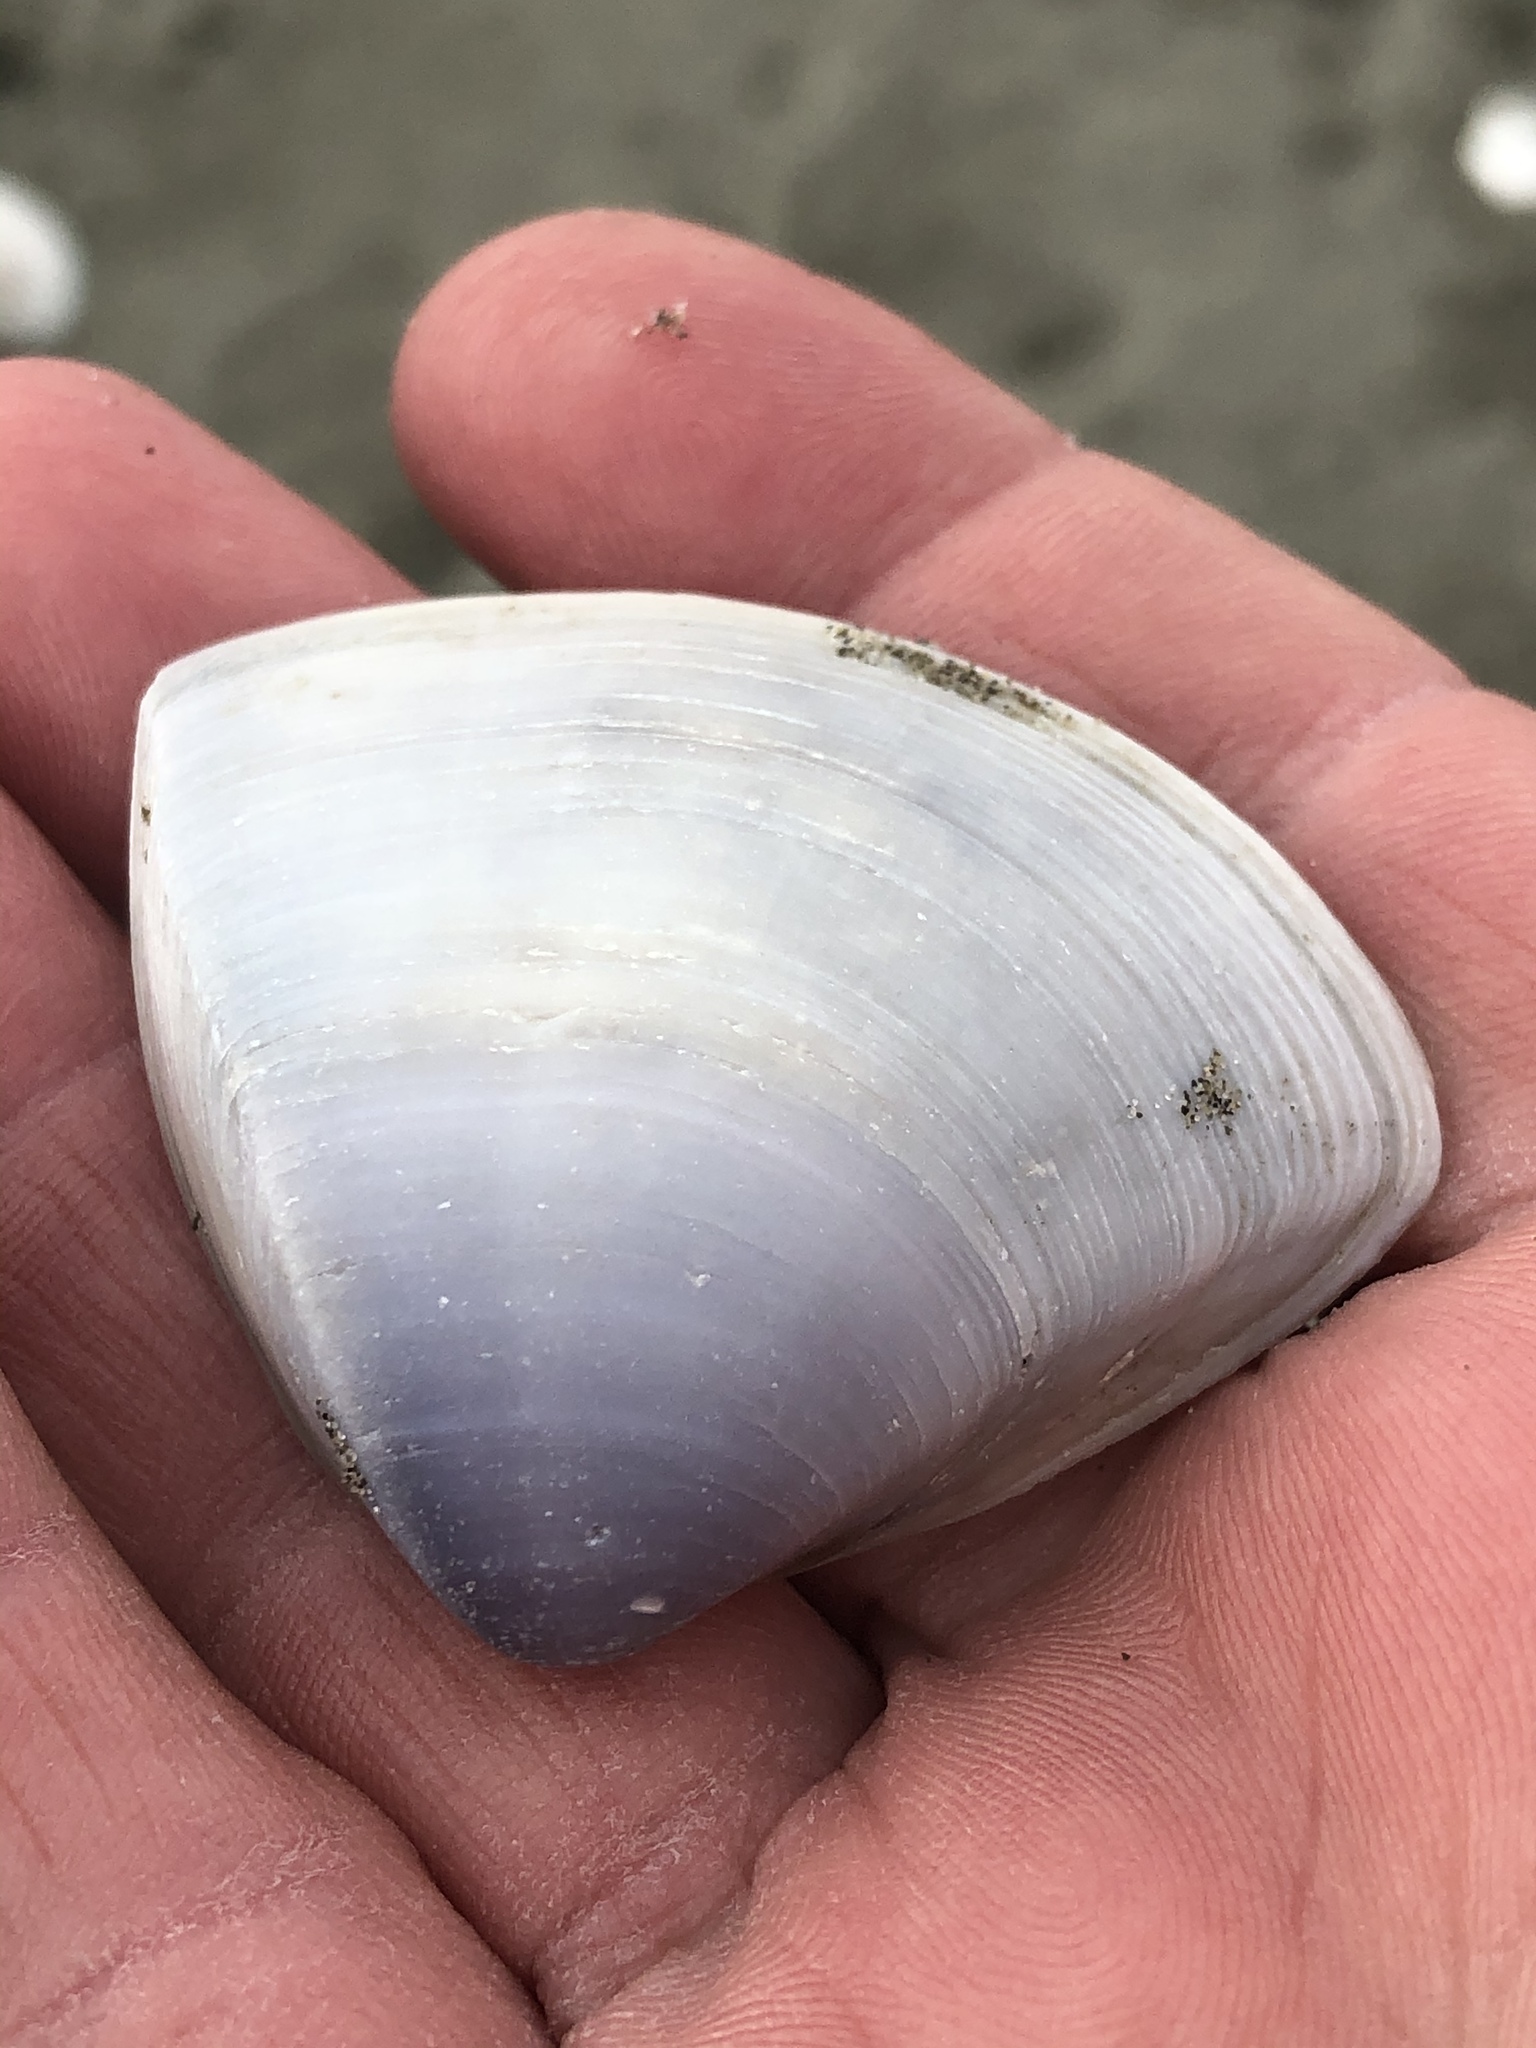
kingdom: Animalia
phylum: Mollusca
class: Bivalvia
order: Venerida
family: Mactridae
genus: Crassula
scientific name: Crassula aequilatera
